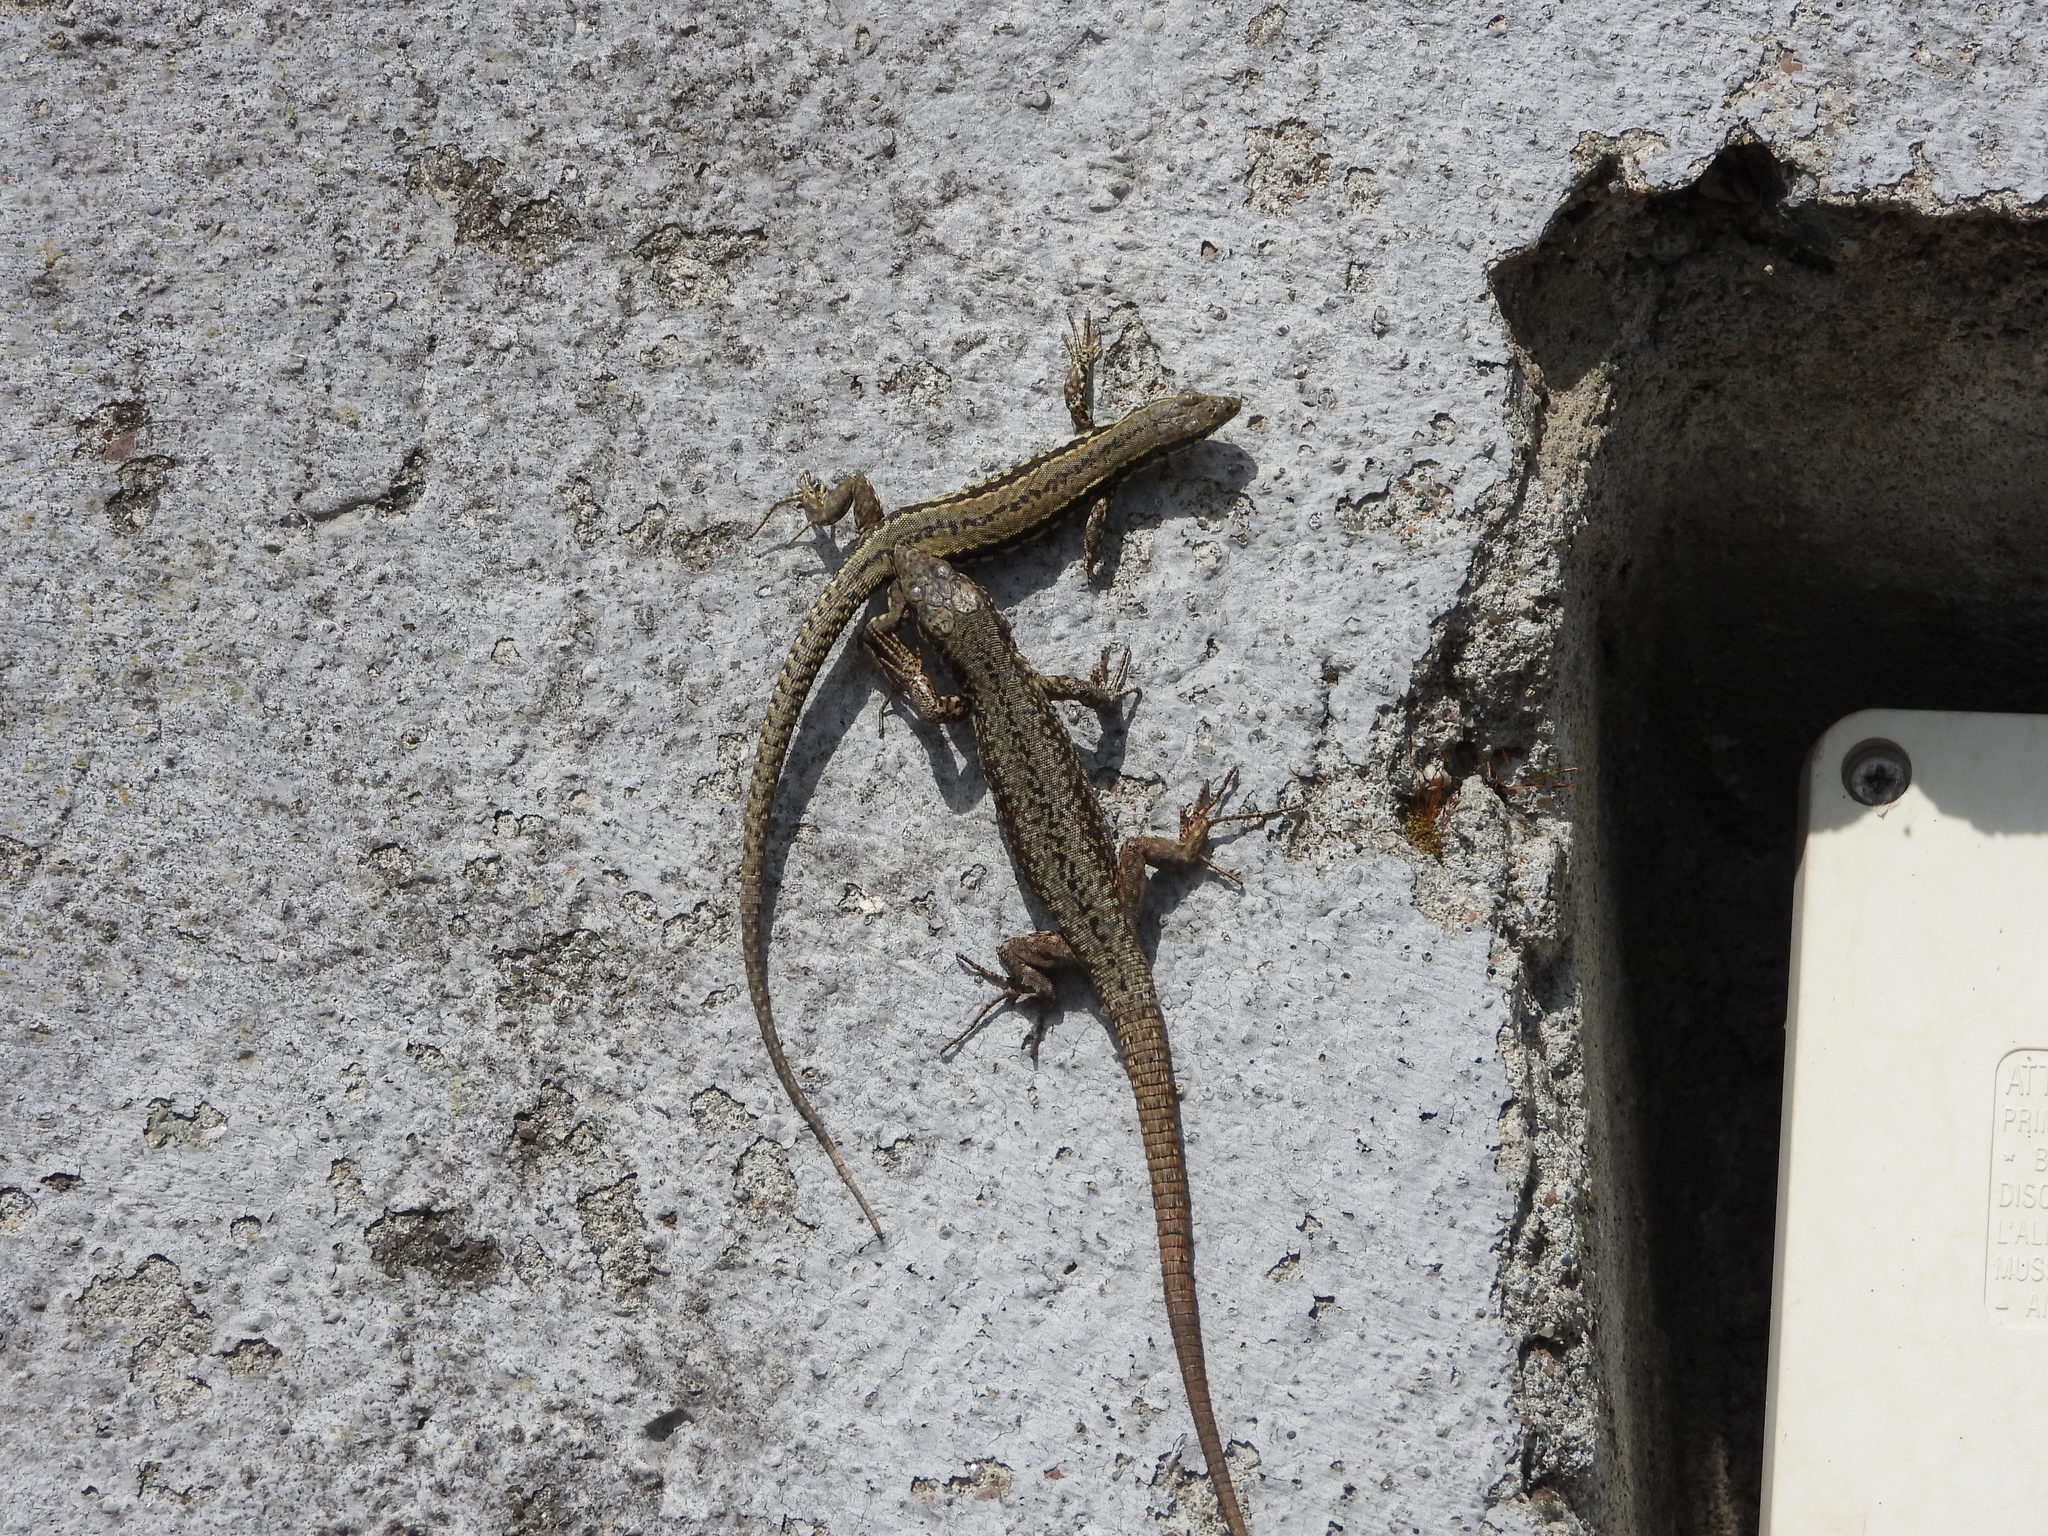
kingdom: Animalia
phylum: Chordata
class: Squamata
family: Lacertidae
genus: Podarcis
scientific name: Podarcis muralis
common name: Common wall lizard
